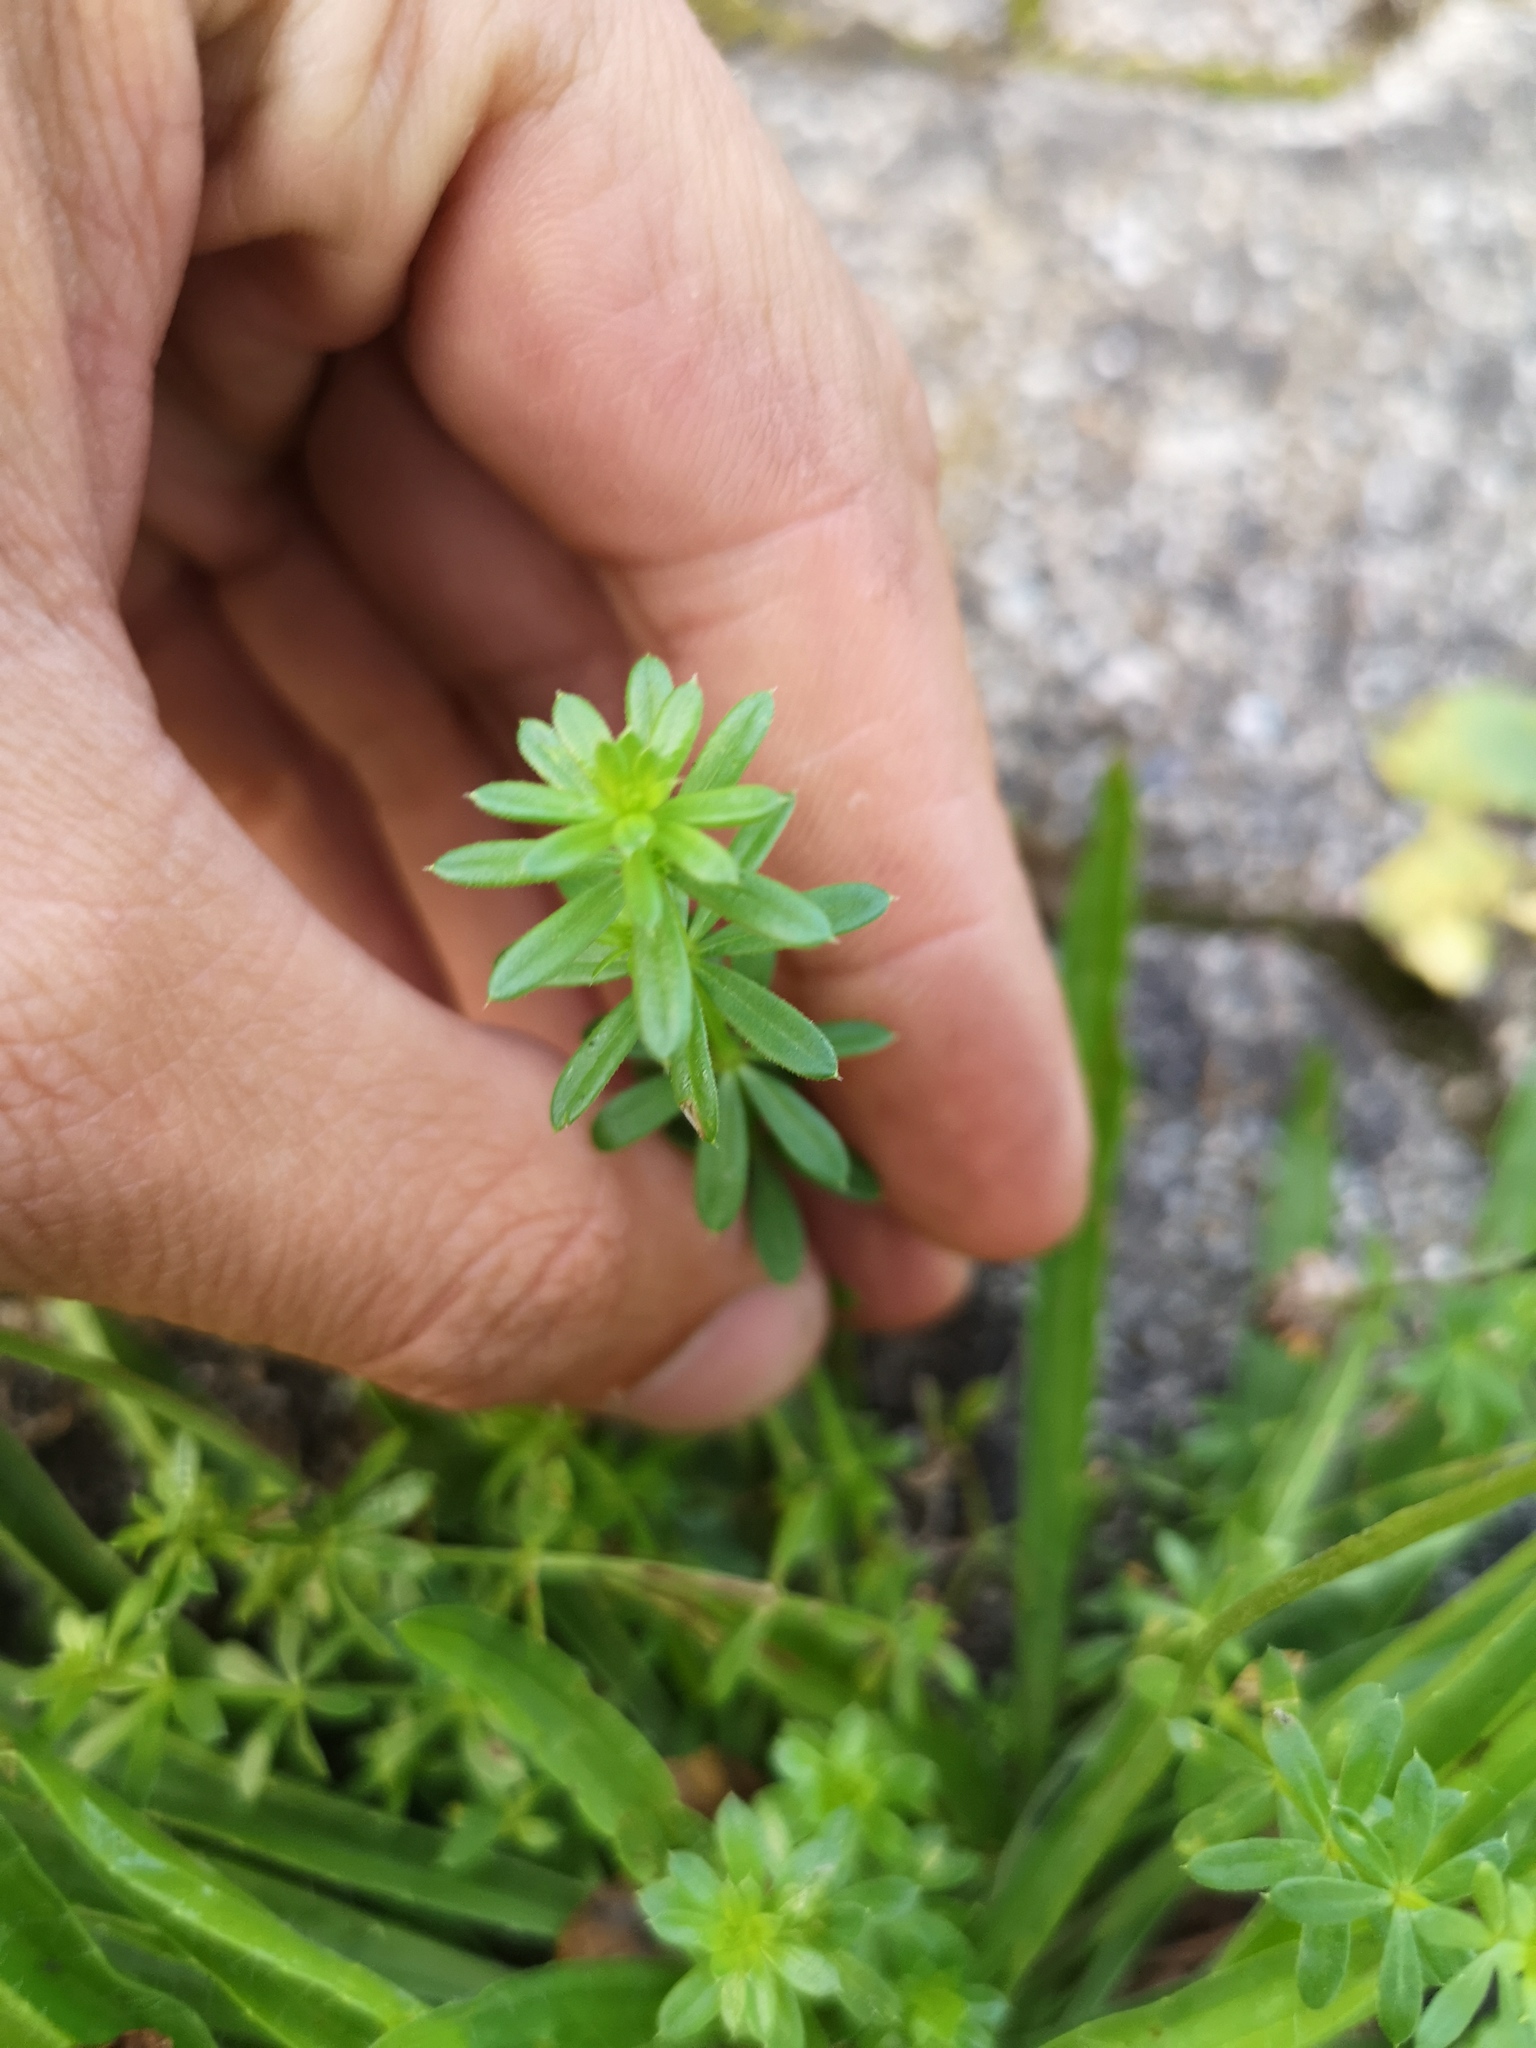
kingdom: Plantae
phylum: Tracheophyta
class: Magnoliopsida
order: Gentianales
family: Rubiaceae
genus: Galium
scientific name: Galium aparine
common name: Cleavers
